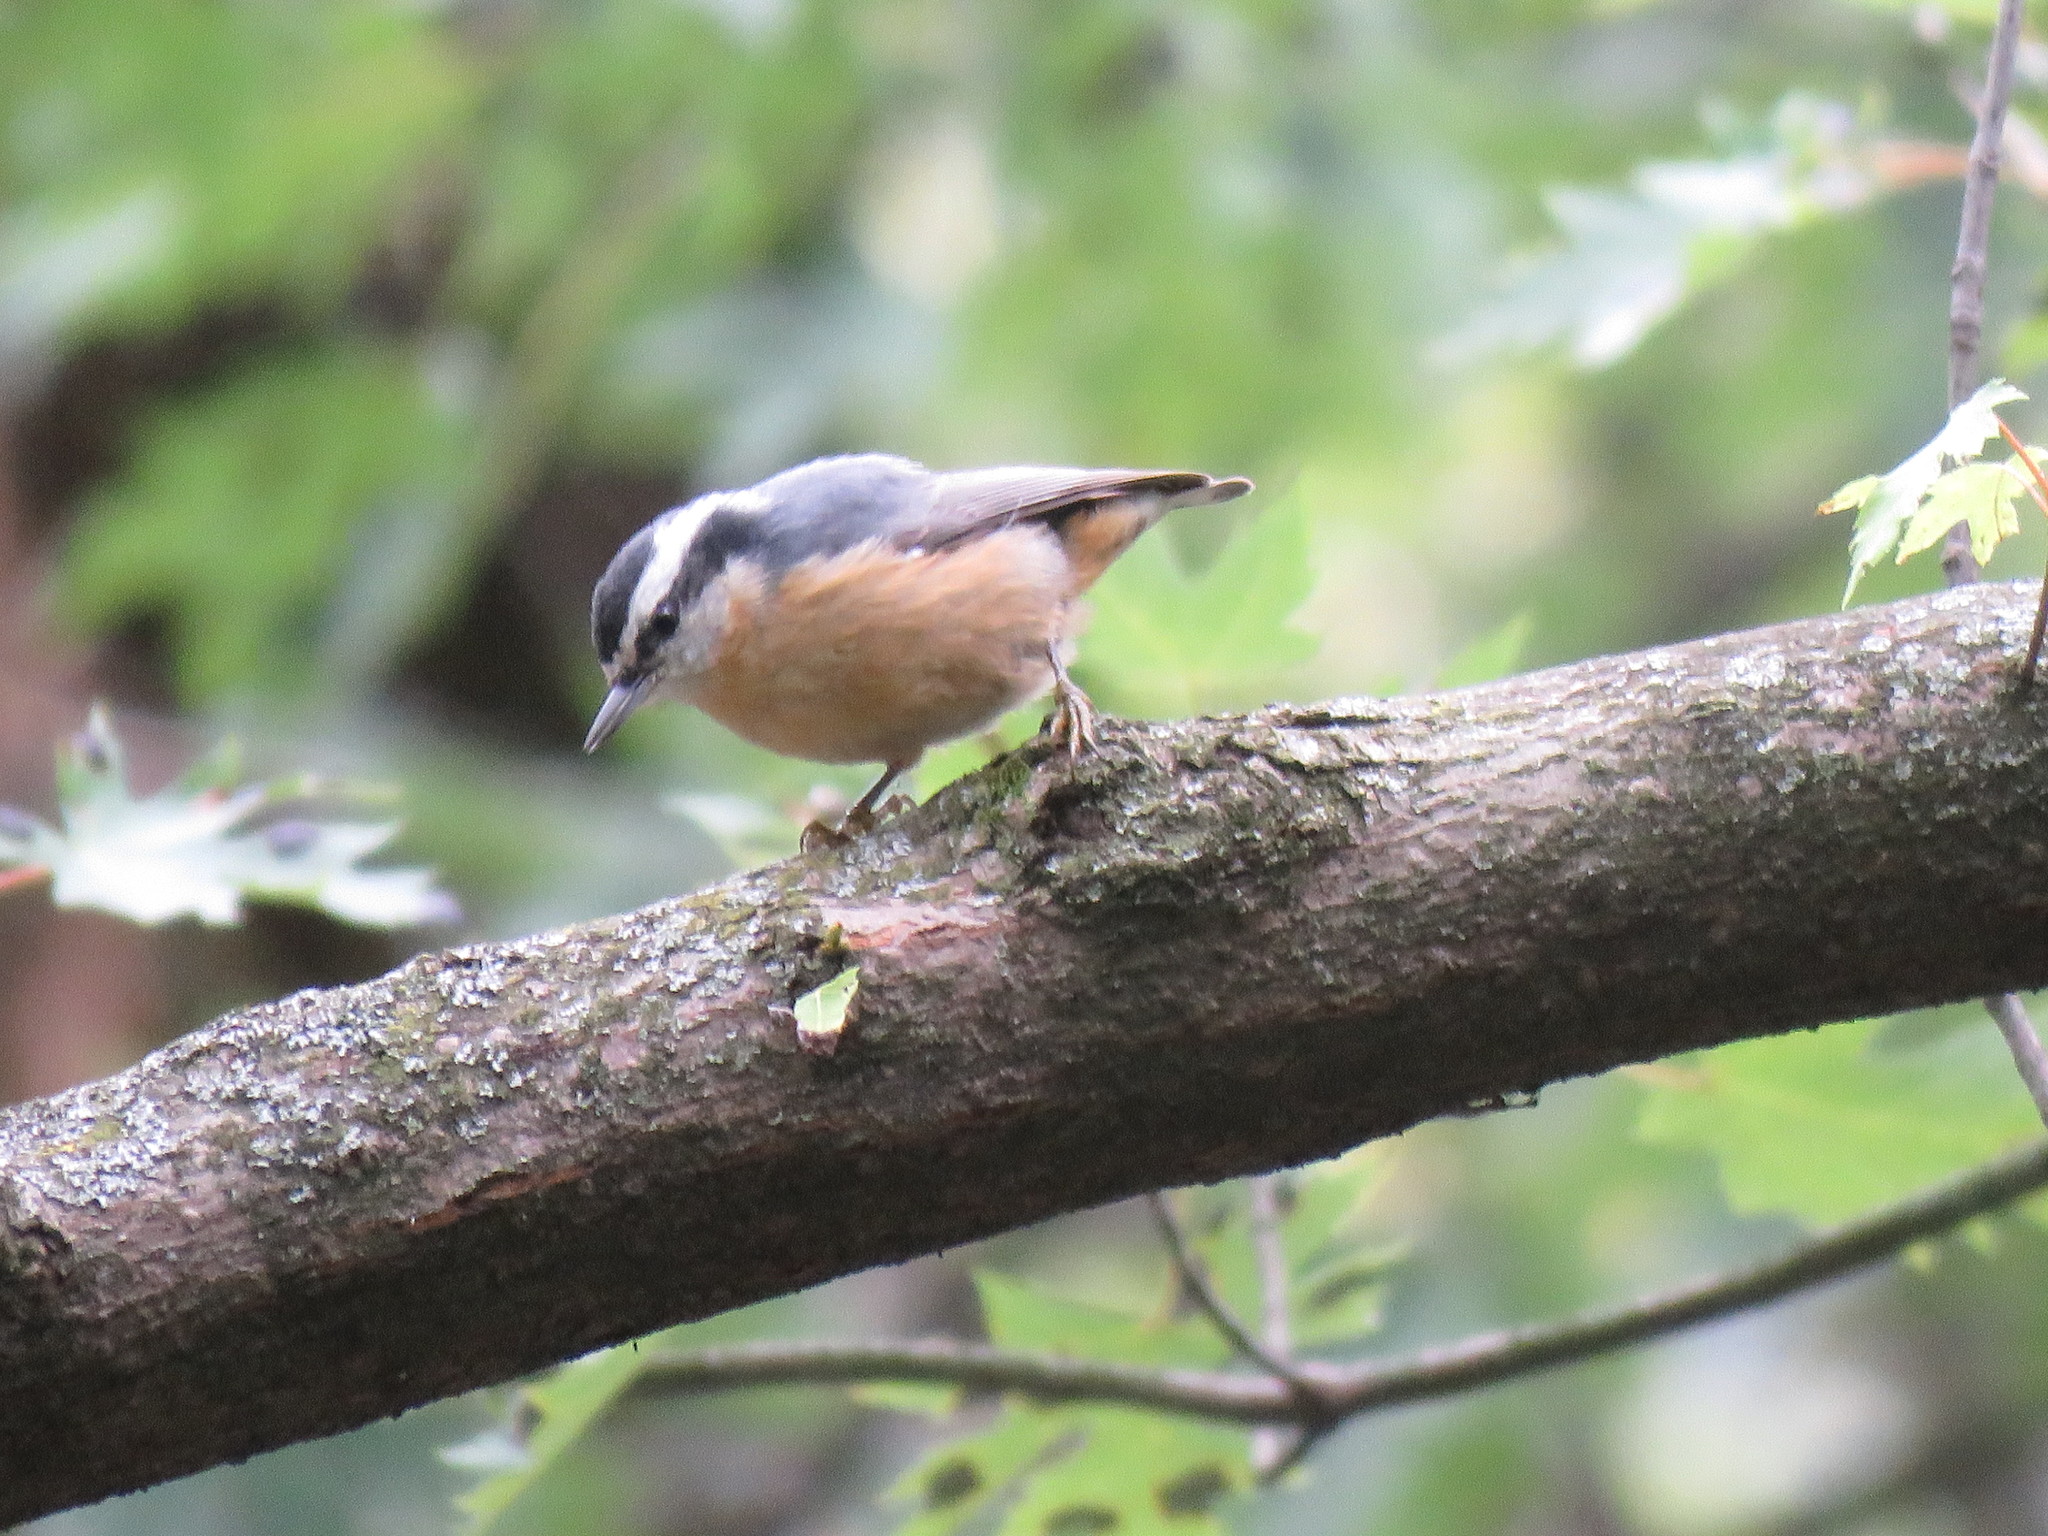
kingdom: Animalia
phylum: Chordata
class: Aves
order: Passeriformes
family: Sittidae
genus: Sitta
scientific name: Sitta canadensis
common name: Red-breasted nuthatch
